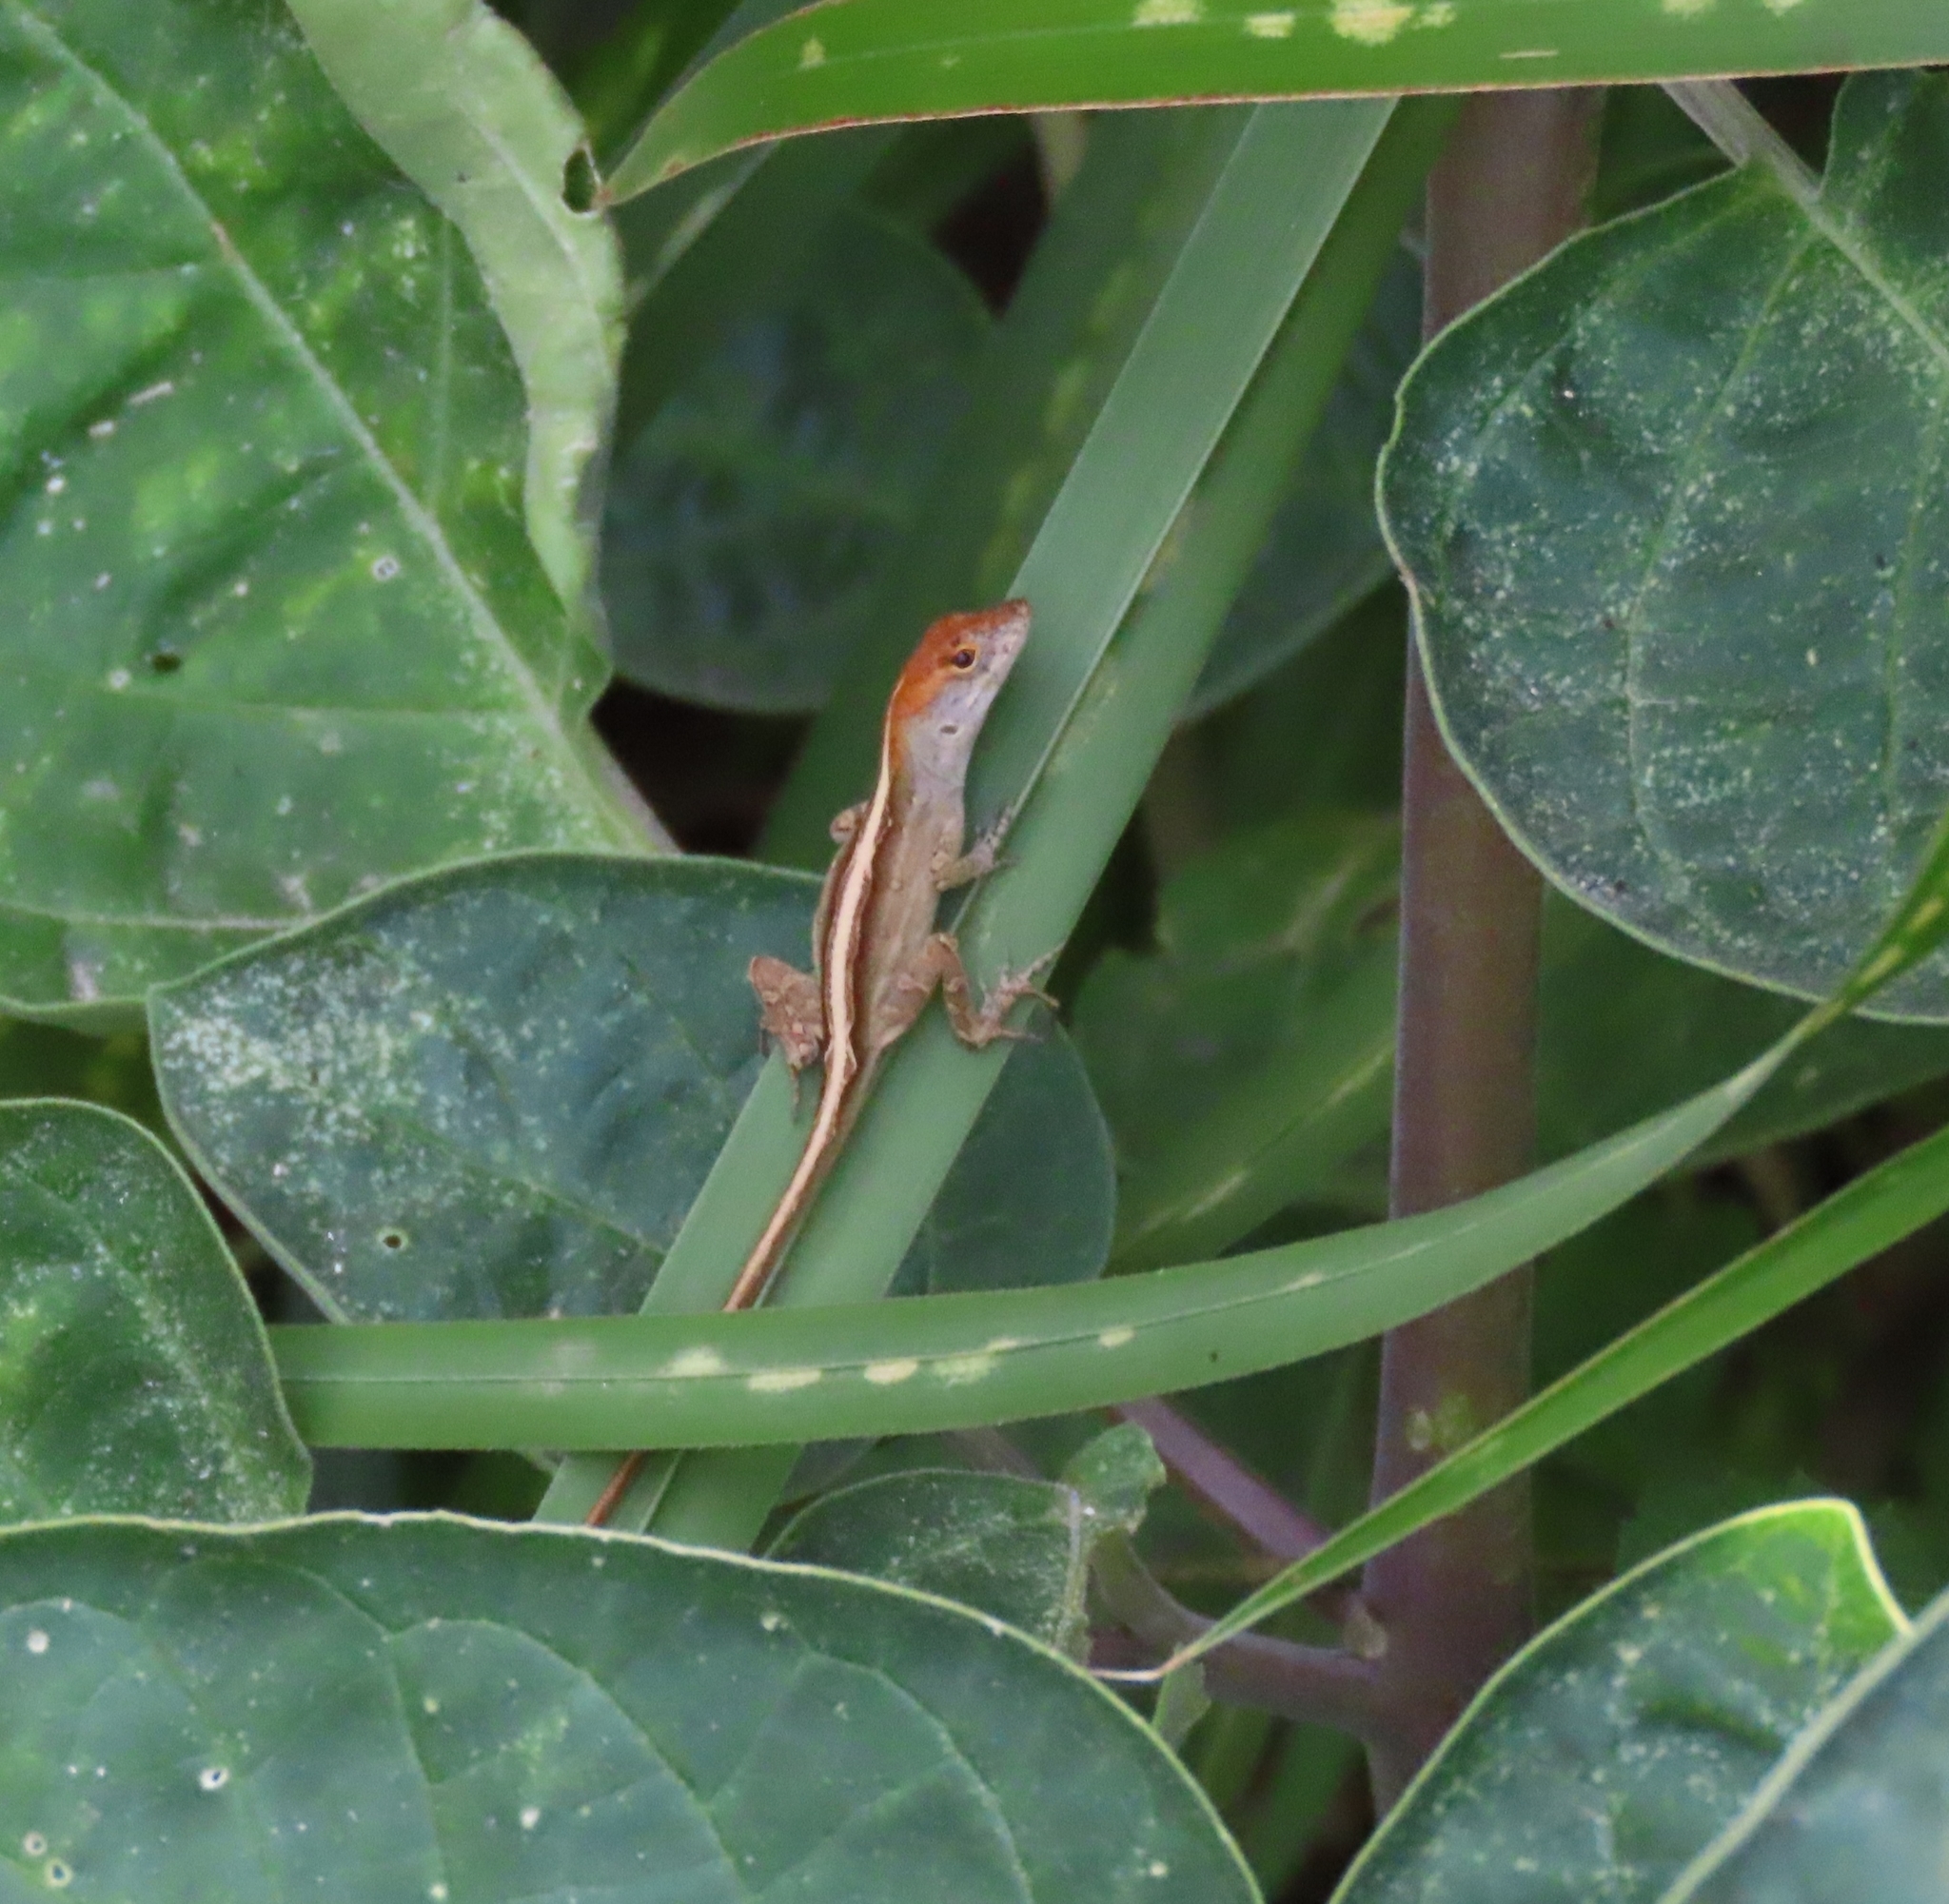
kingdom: Animalia
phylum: Chordata
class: Squamata
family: Dactyloidae
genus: Anolis
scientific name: Anolis sagrei
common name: Brown anole
